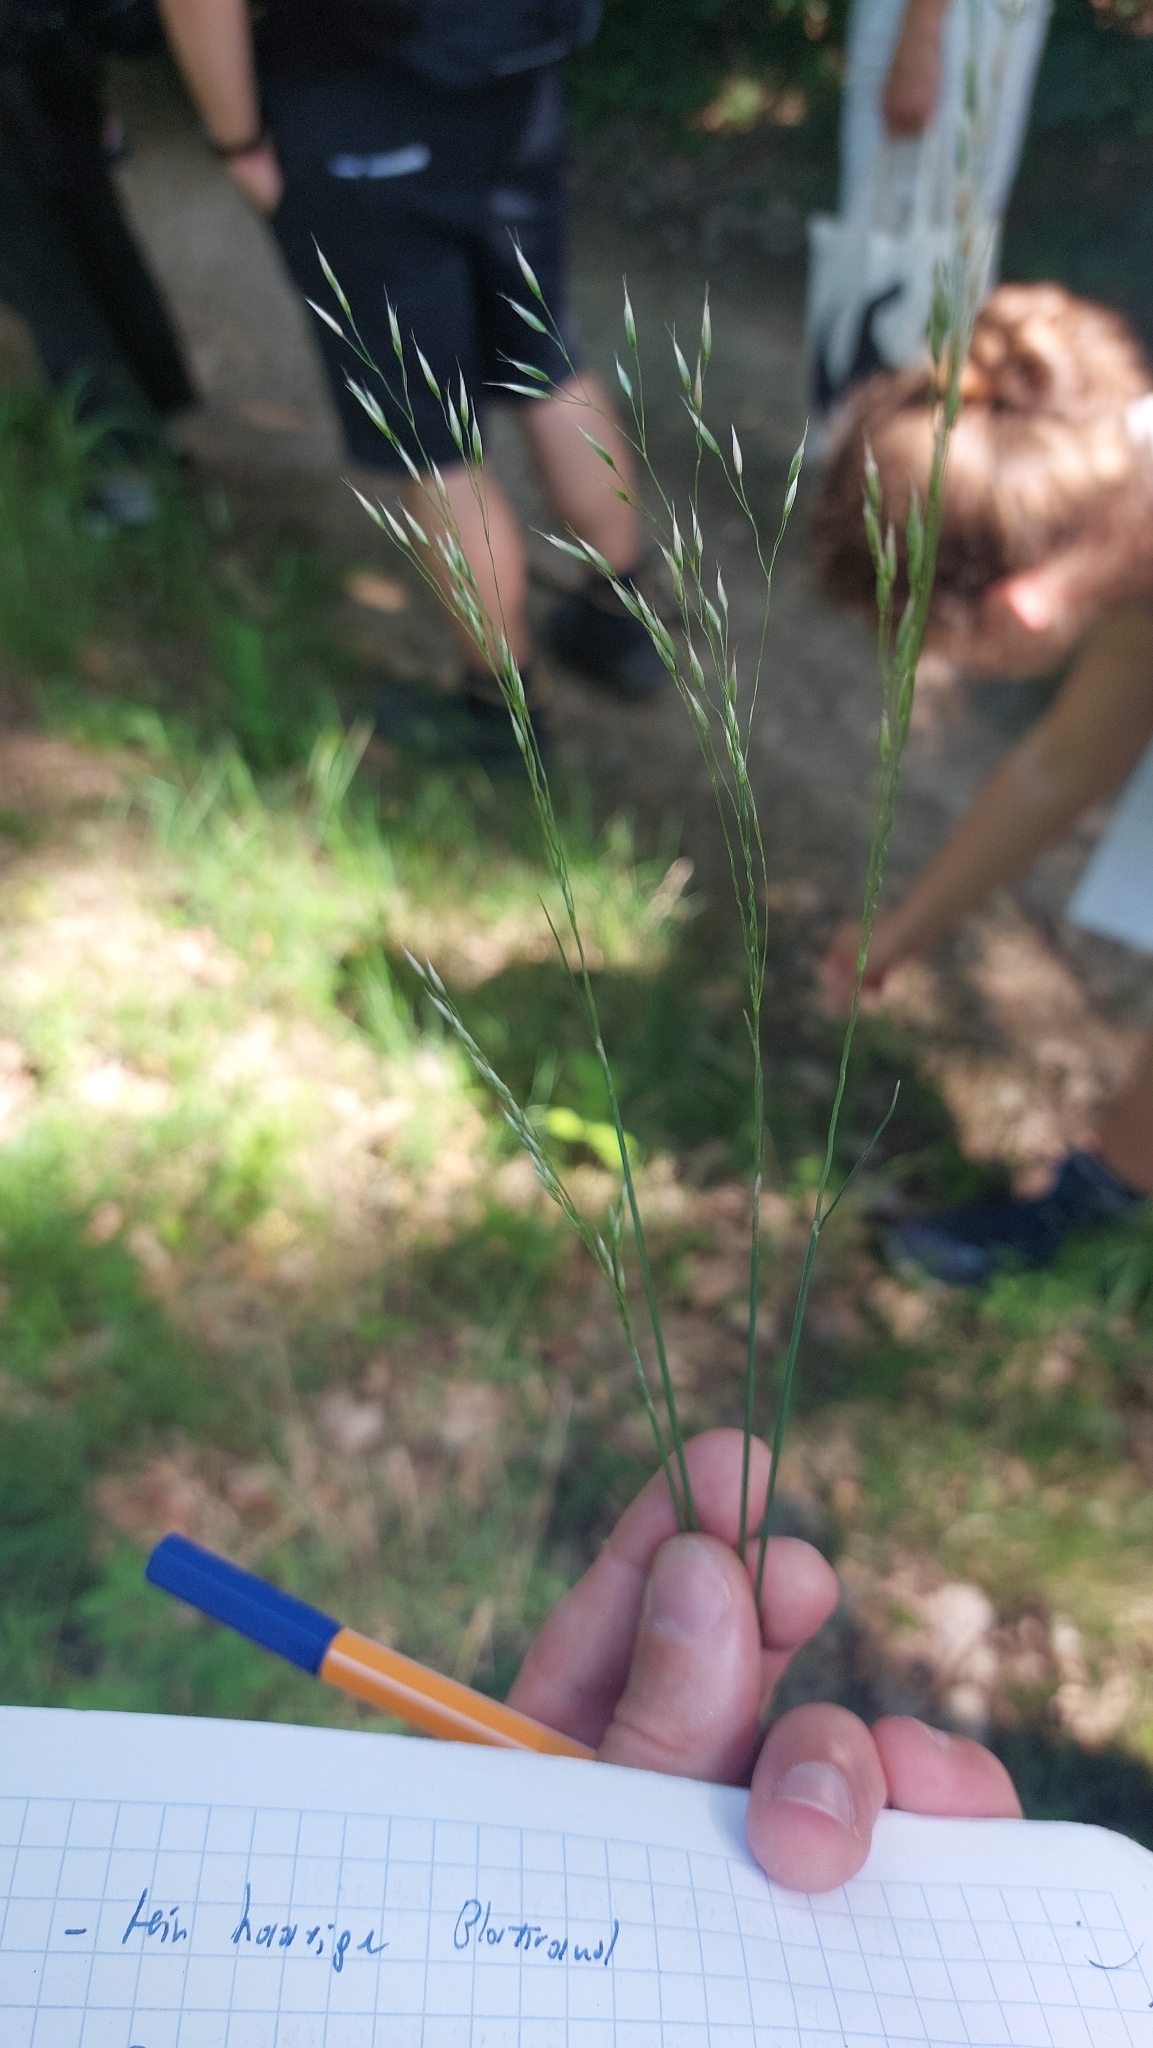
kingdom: Plantae
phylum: Tracheophyta
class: Liliopsida
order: Poales
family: Poaceae
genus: Avenella
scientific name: Avenella flexuosa
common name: Wavy hairgrass
